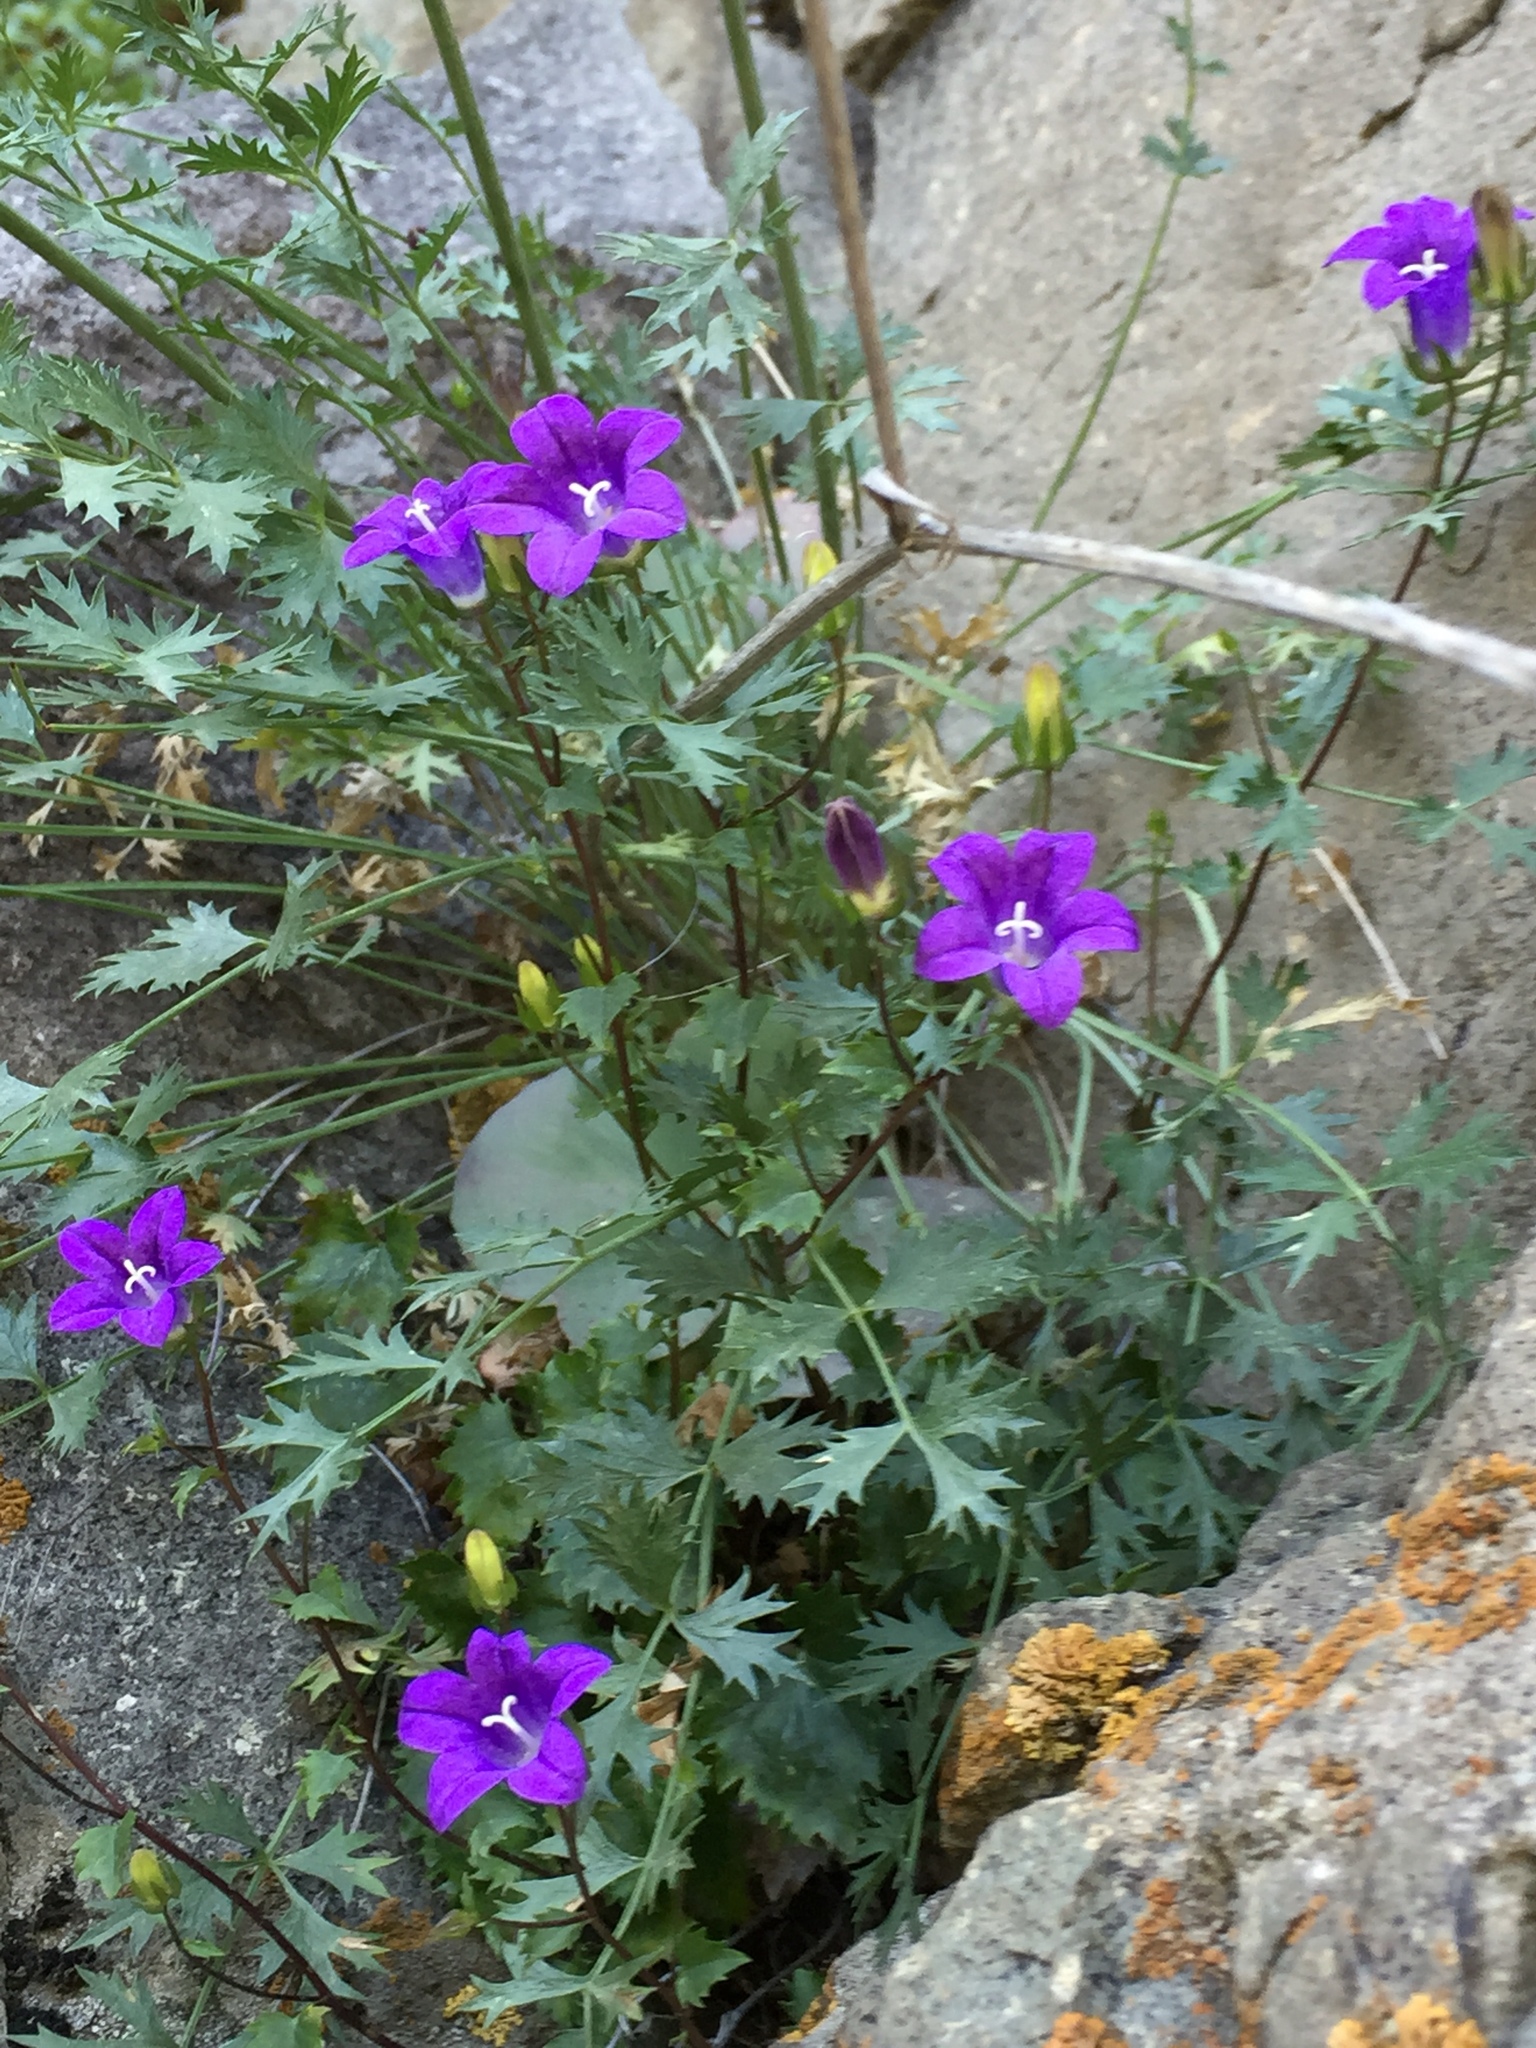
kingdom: Plantae
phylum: Tracheophyta
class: Magnoliopsida
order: Asterales
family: Campanulaceae
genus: Campanula
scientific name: Campanula armena
